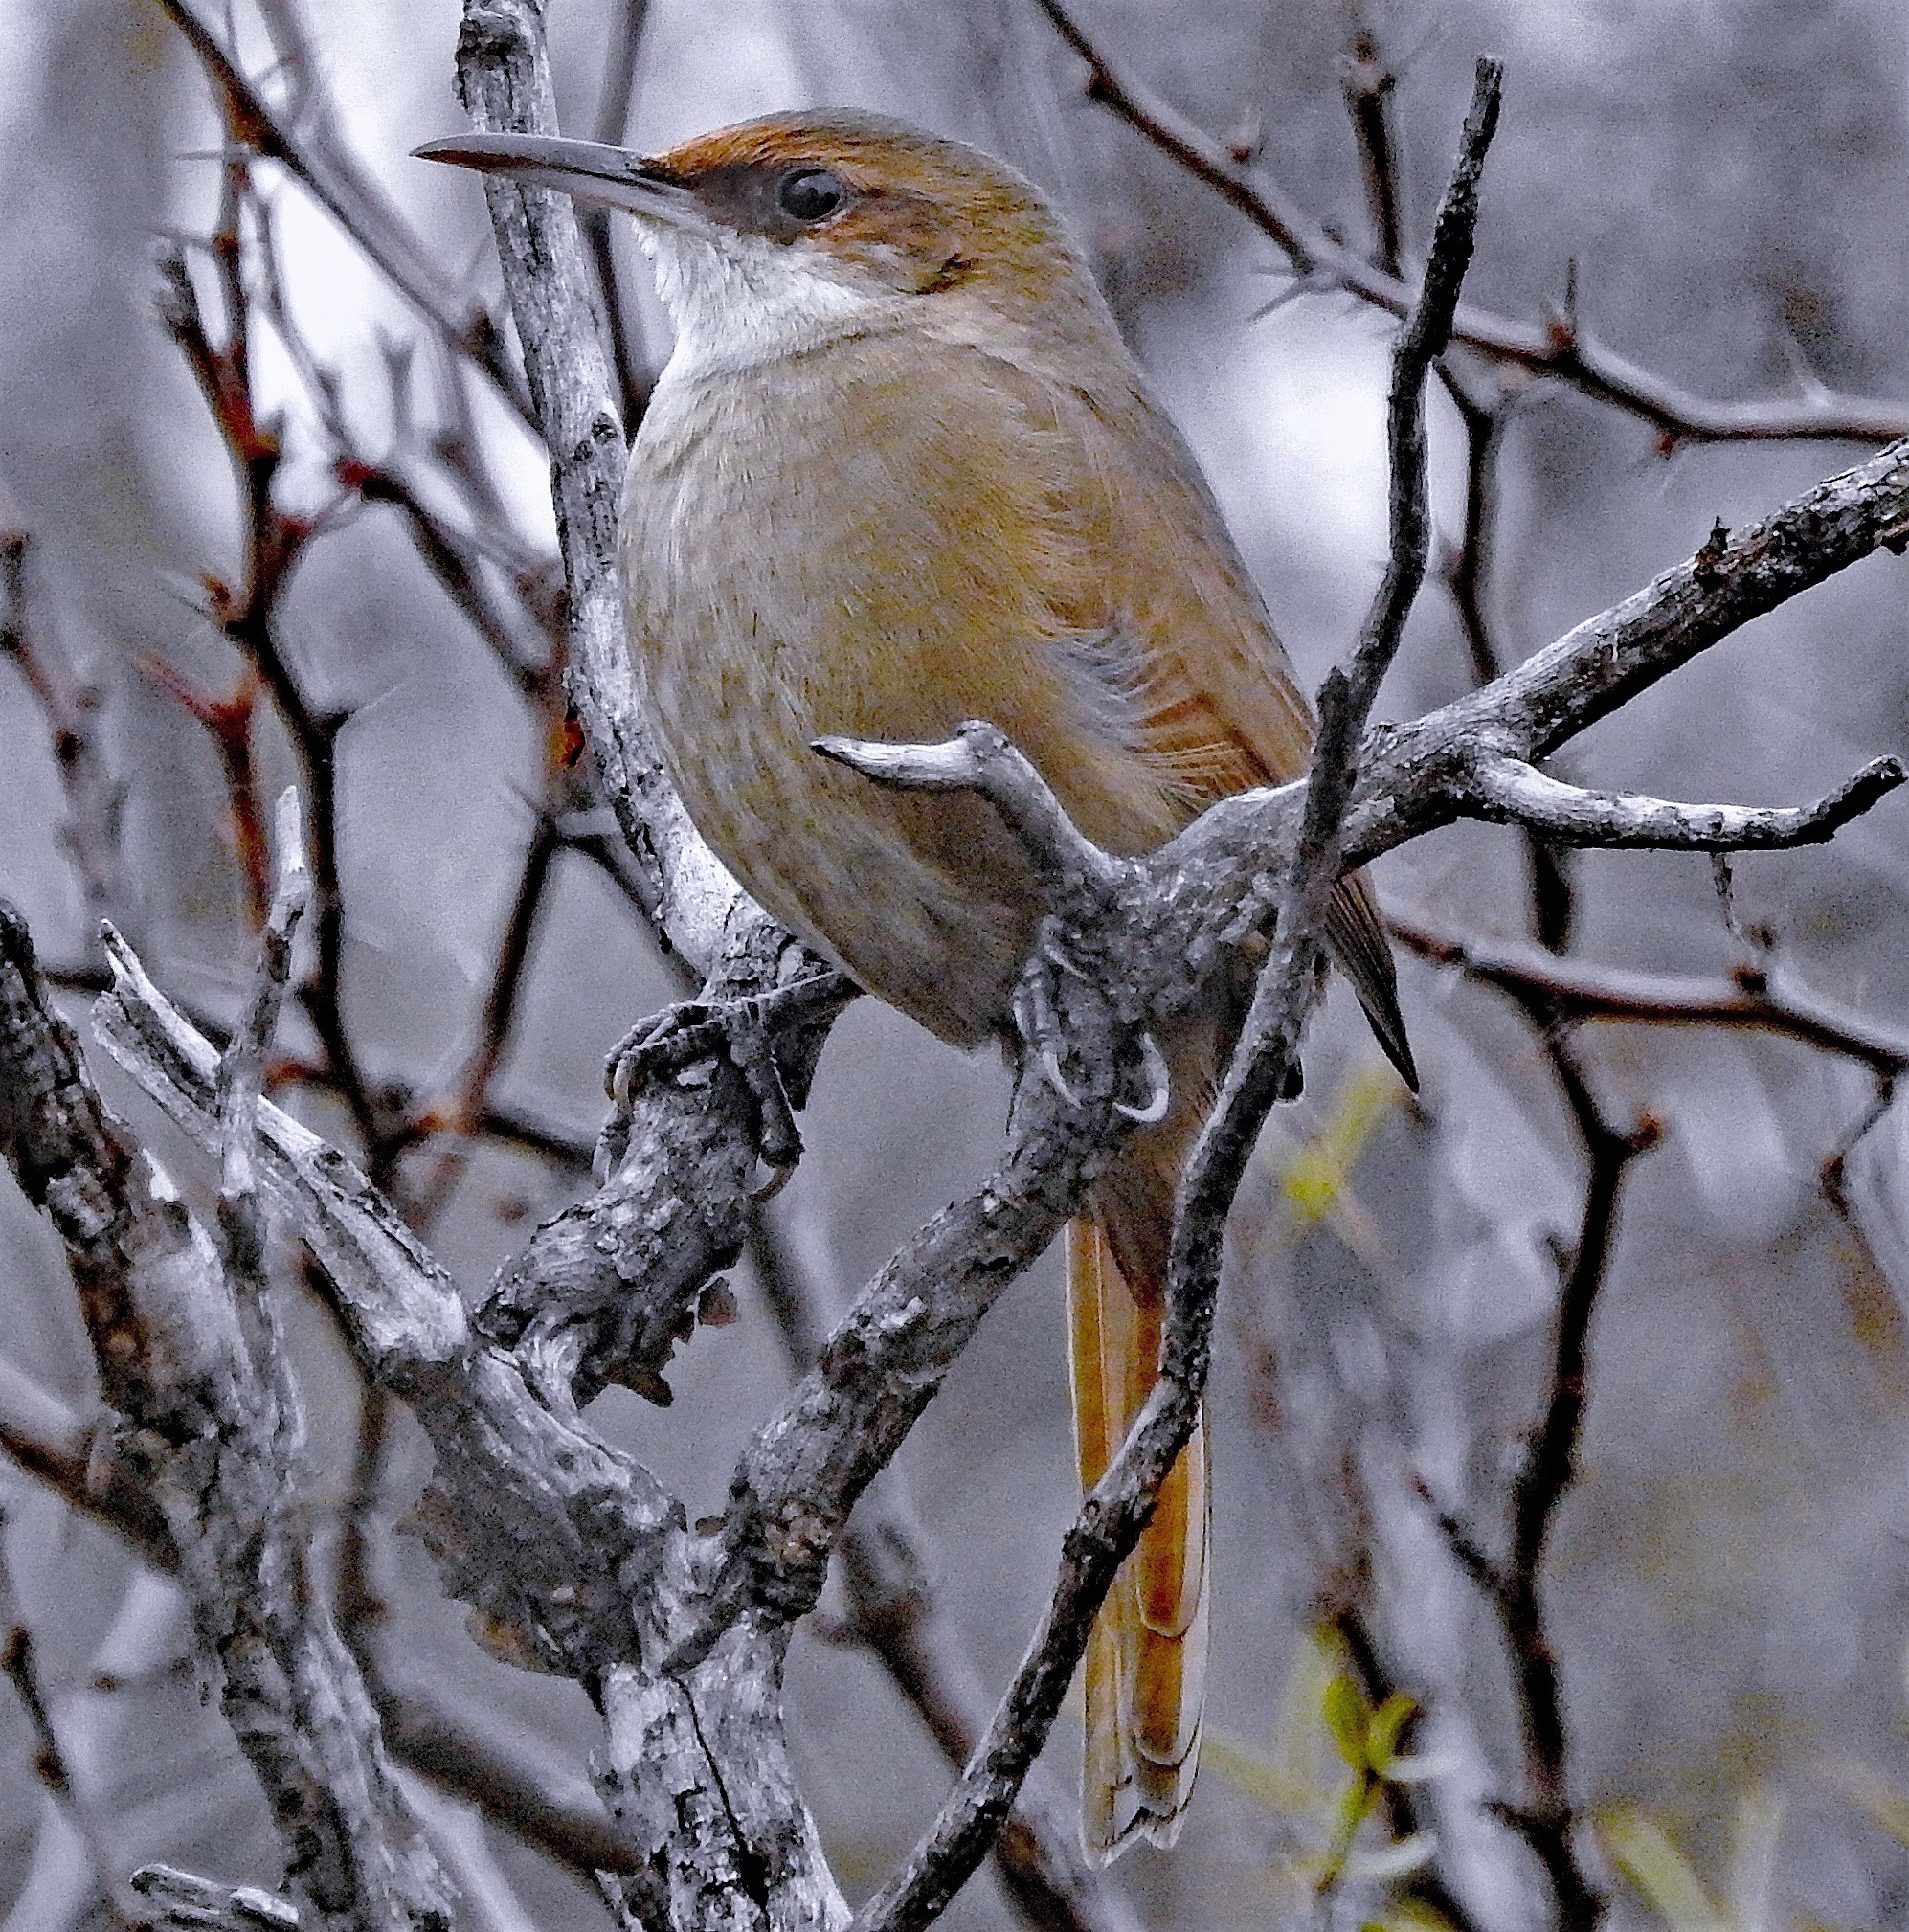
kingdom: Animalia
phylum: Chordata
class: Aves
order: Passeriformes
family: Furnariidae
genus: Upucerthia
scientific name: Upucerthia certhioides
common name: Chaco earthcreeper
